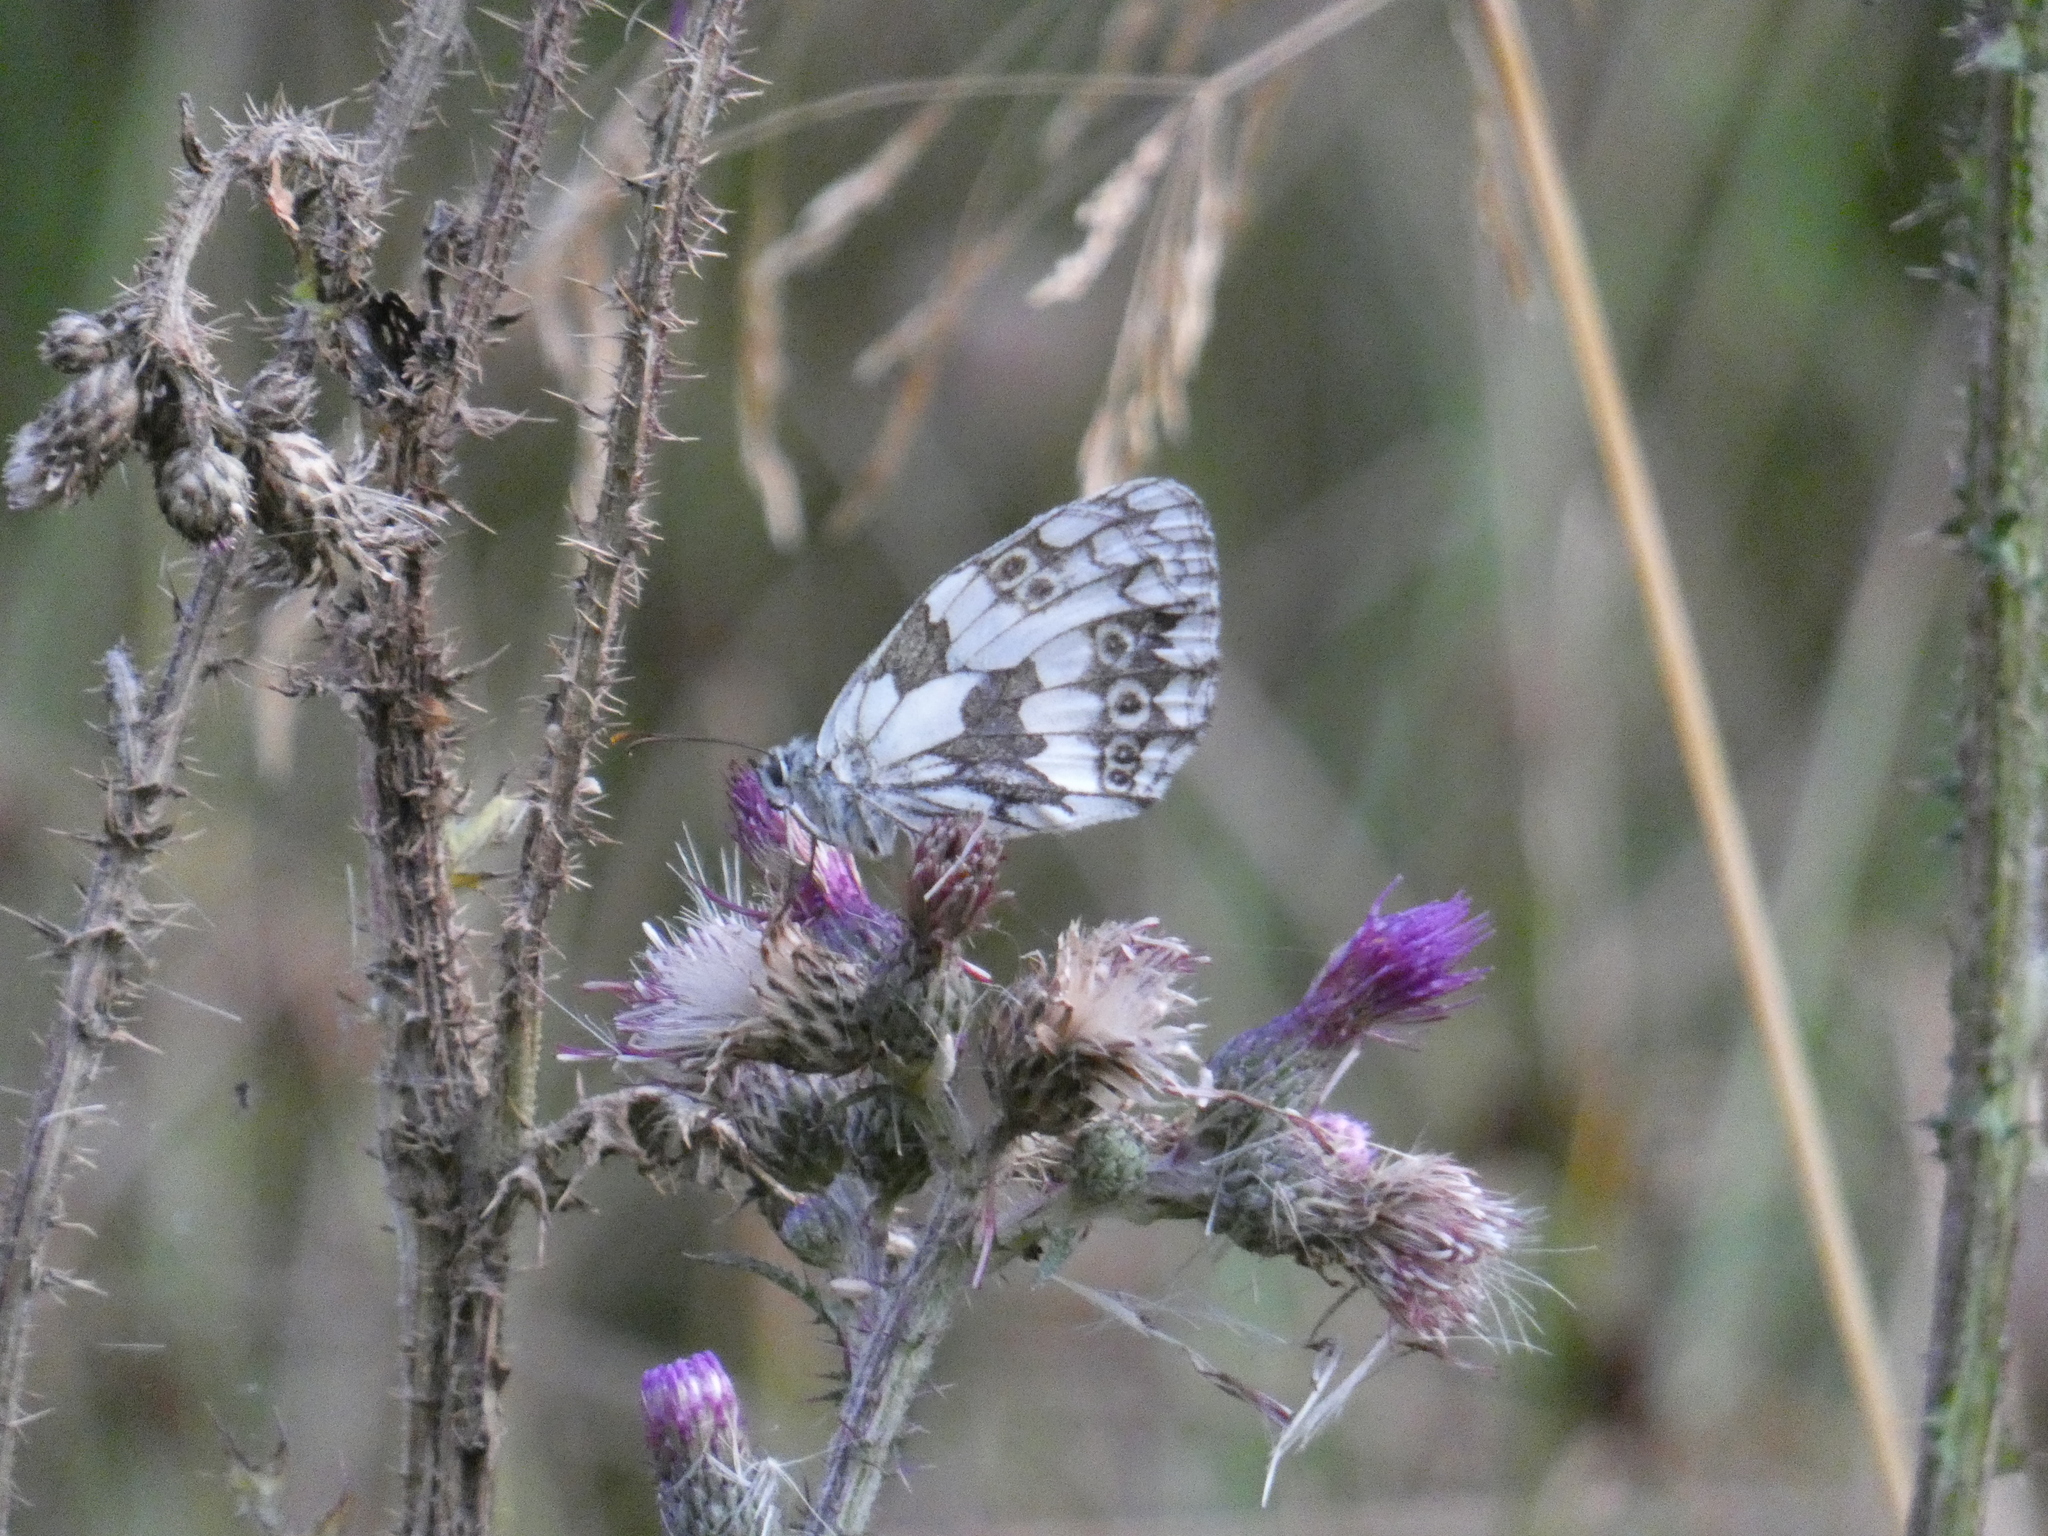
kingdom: Animalia
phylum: Arthropoda
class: Insecta
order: Lepidoptera
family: Nymphalidae
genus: Melanargia
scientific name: Melanargia galathea
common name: Marbled white
